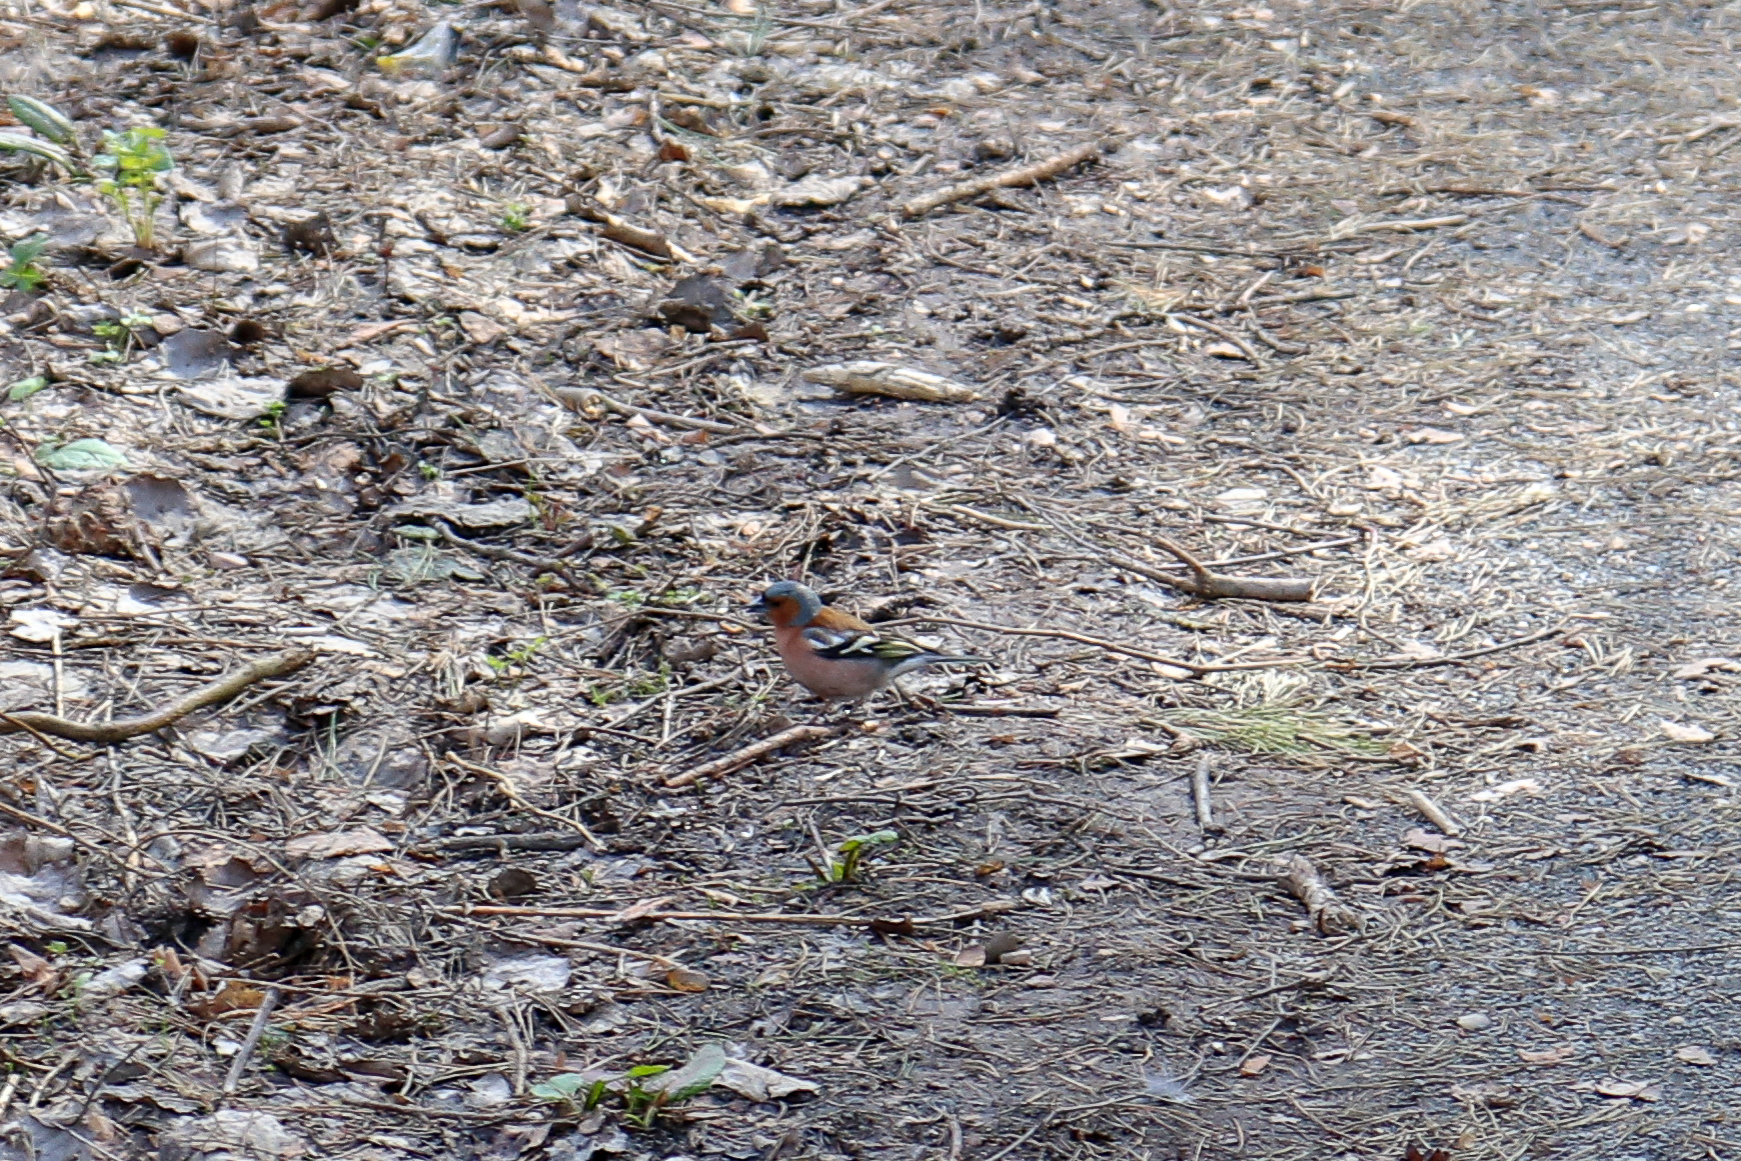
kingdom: Animalia
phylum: Chordata
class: Aves
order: Passeriformes
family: Fringillidae
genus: Fringilla
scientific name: Fringilla coelebs
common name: Common chaffinch
